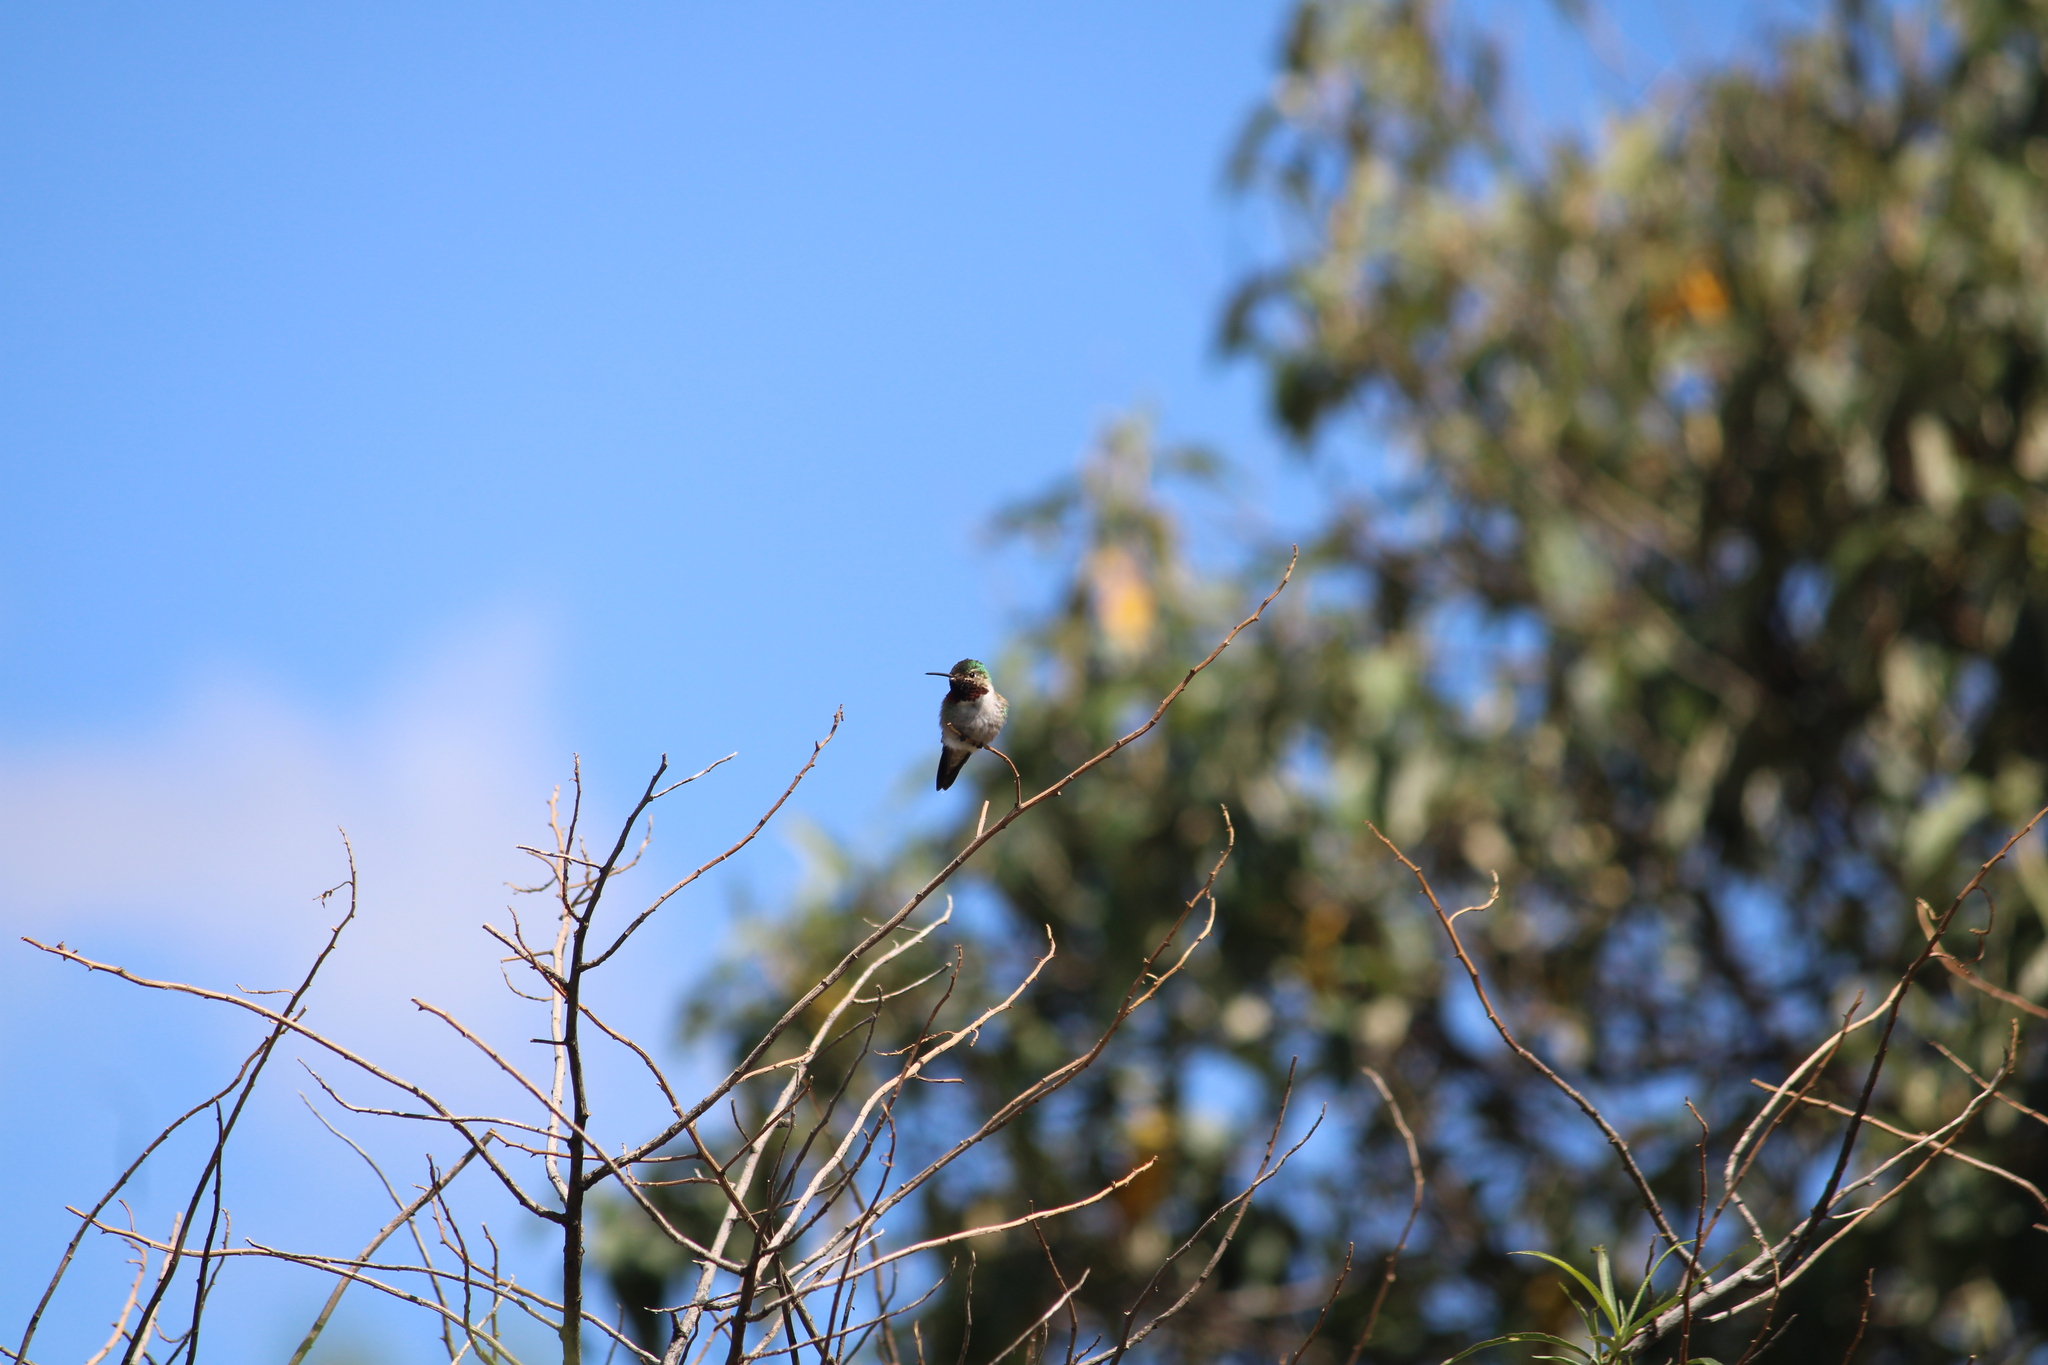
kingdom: Animalia
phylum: Chordata
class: Aves
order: Apodiformes
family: Trochilidae
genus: Selasphorus
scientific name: Selasphorus platycercus
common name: Broad-tailed hummingbird
